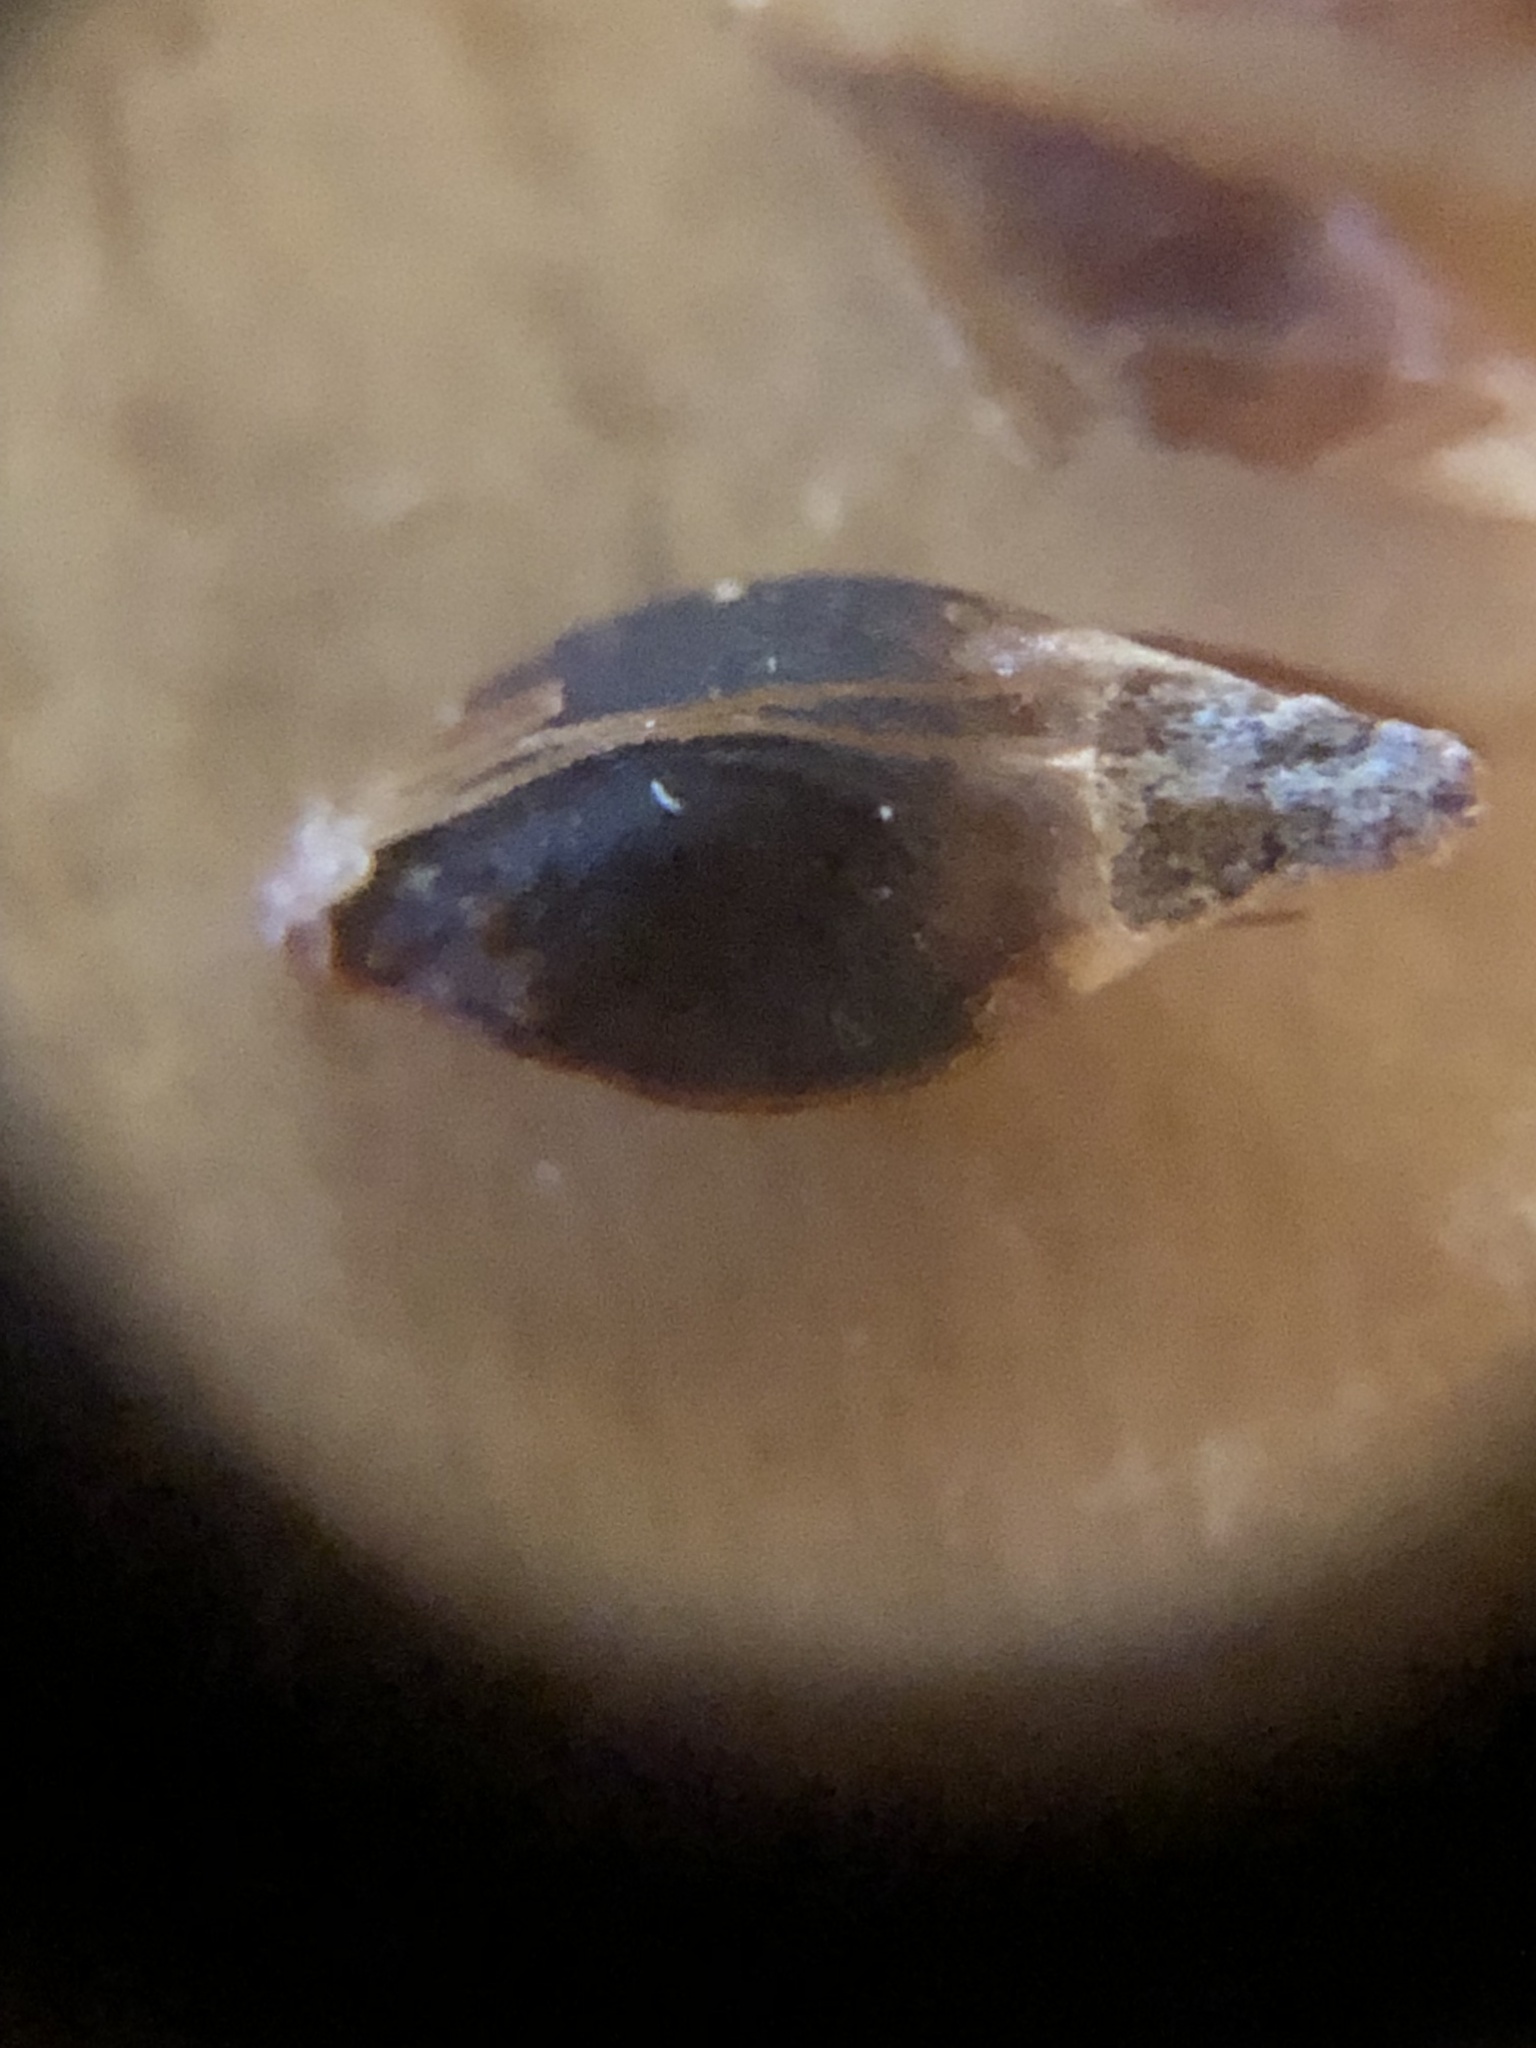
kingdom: Plantae
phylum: Tracheophyta
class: Liliopsida
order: Poales
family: Cyperaceae
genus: Rhynchospora
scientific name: Rhynchospora fascicularis
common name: Fascicled beak sedge
